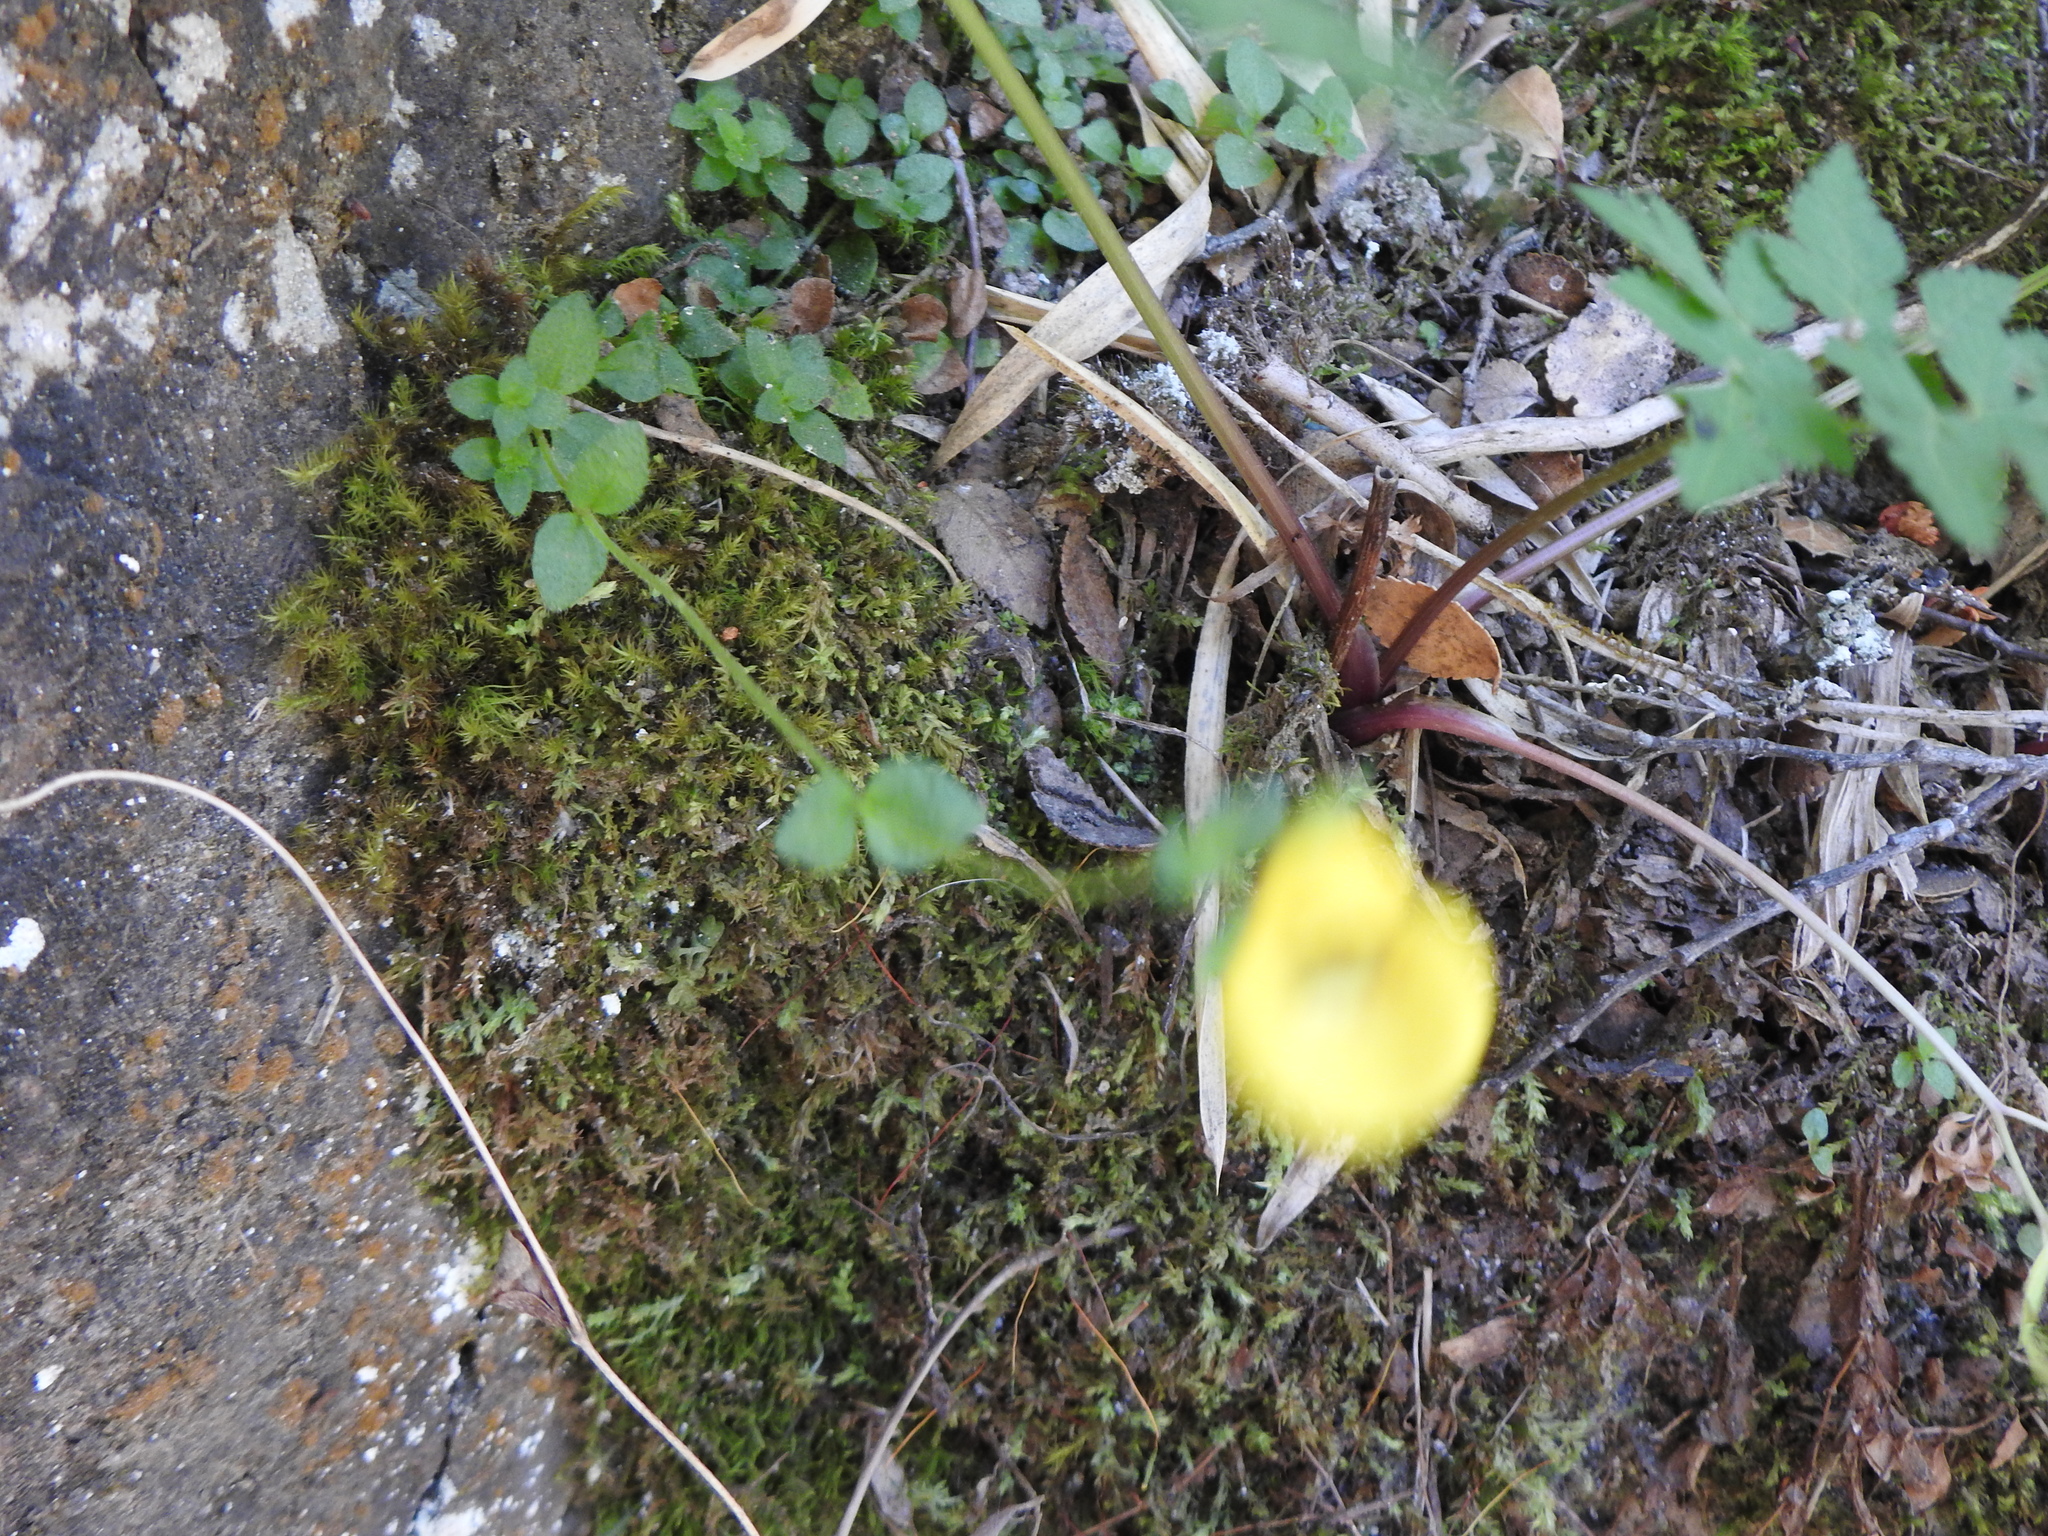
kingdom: Plantae
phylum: Tracheophyta
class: Magnoliopsida
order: Lamiales
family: Calceolariaceae
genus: Calceolaria
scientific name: Calceolaria tenella
